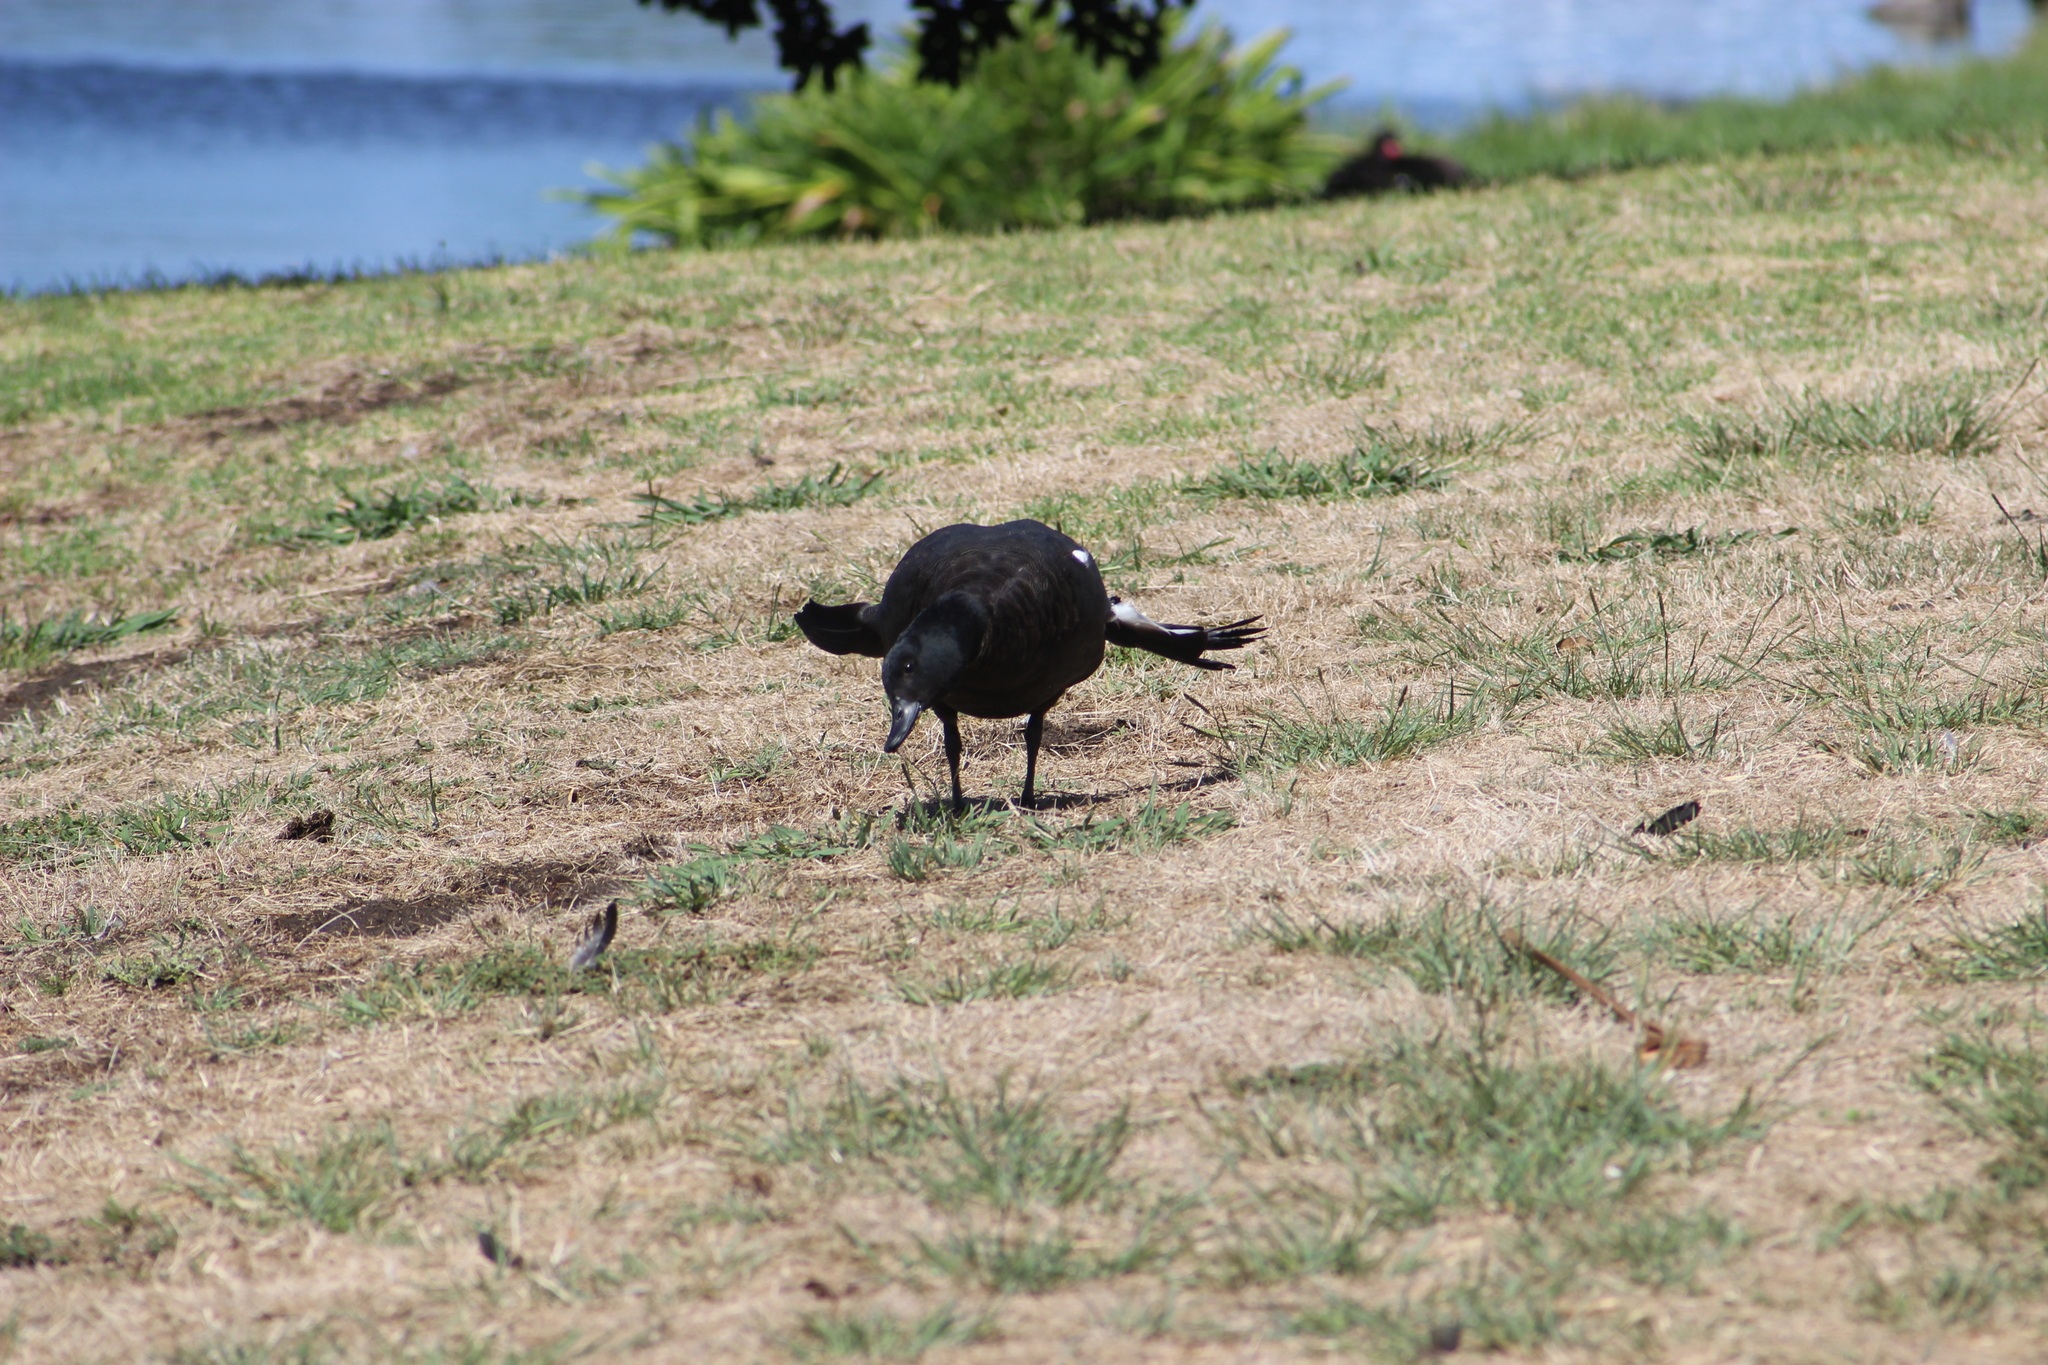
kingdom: Animalia
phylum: Chordata
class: Aves
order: Anseriformes
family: Anatidae
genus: Tadorna
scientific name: Tadorna variegata
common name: Paradise shelduck
